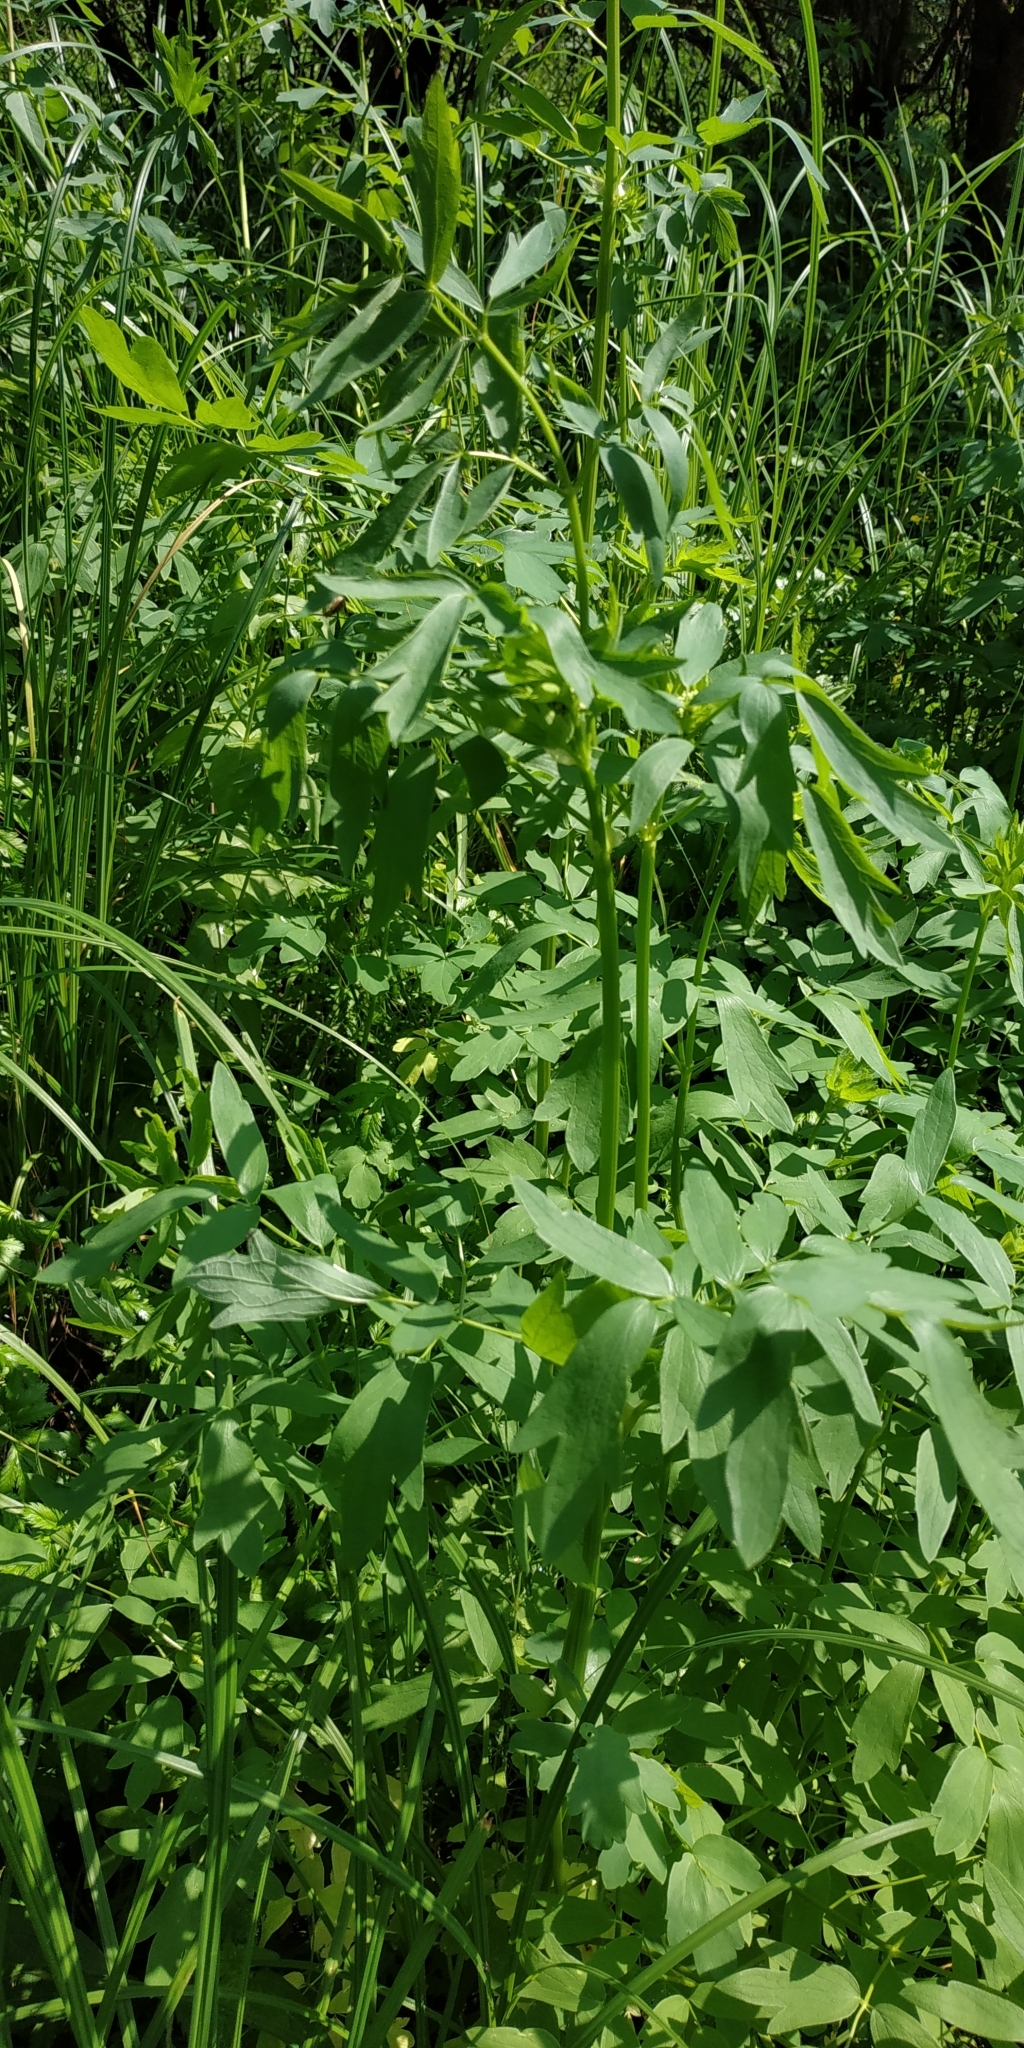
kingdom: Plantae
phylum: Tracheophyta
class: Magnoliopsida
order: Ranunculales
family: Ranunculaceae
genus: Thalictrum
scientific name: Thalictrum simplex
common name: Small meadow-rue
